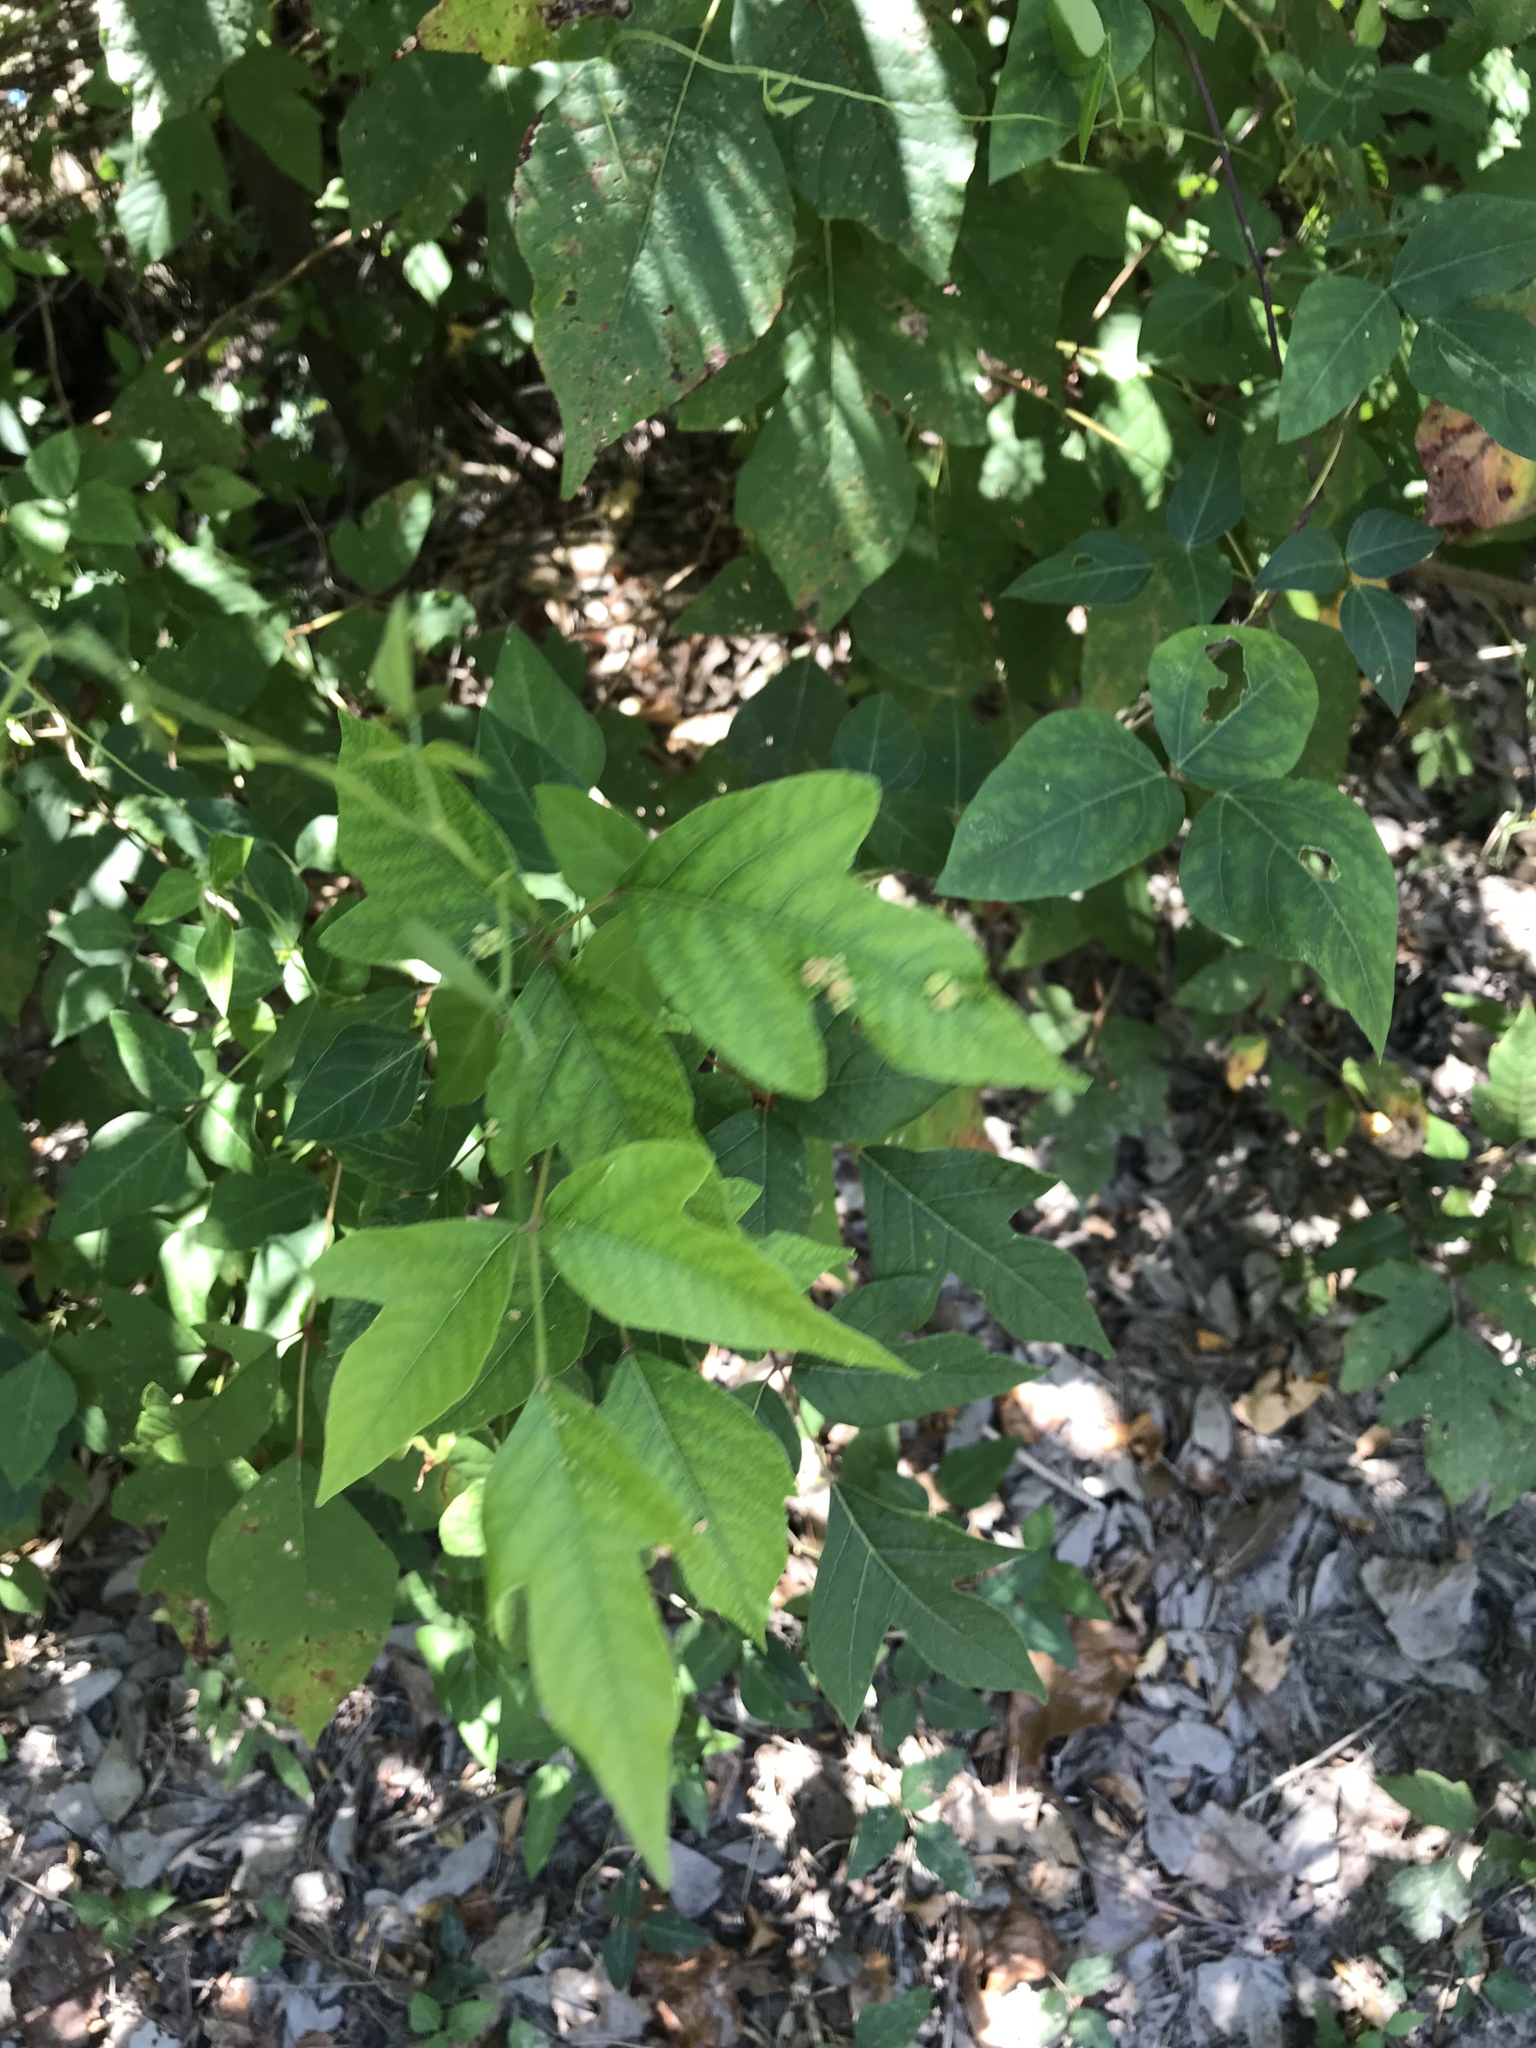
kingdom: Plantae
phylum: Tracheophyta
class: Magnoliopsida
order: Sapindales
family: Anacardiaceae
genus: Toxicodendron
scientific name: Toxicodendron radicans
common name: Poison ivy
